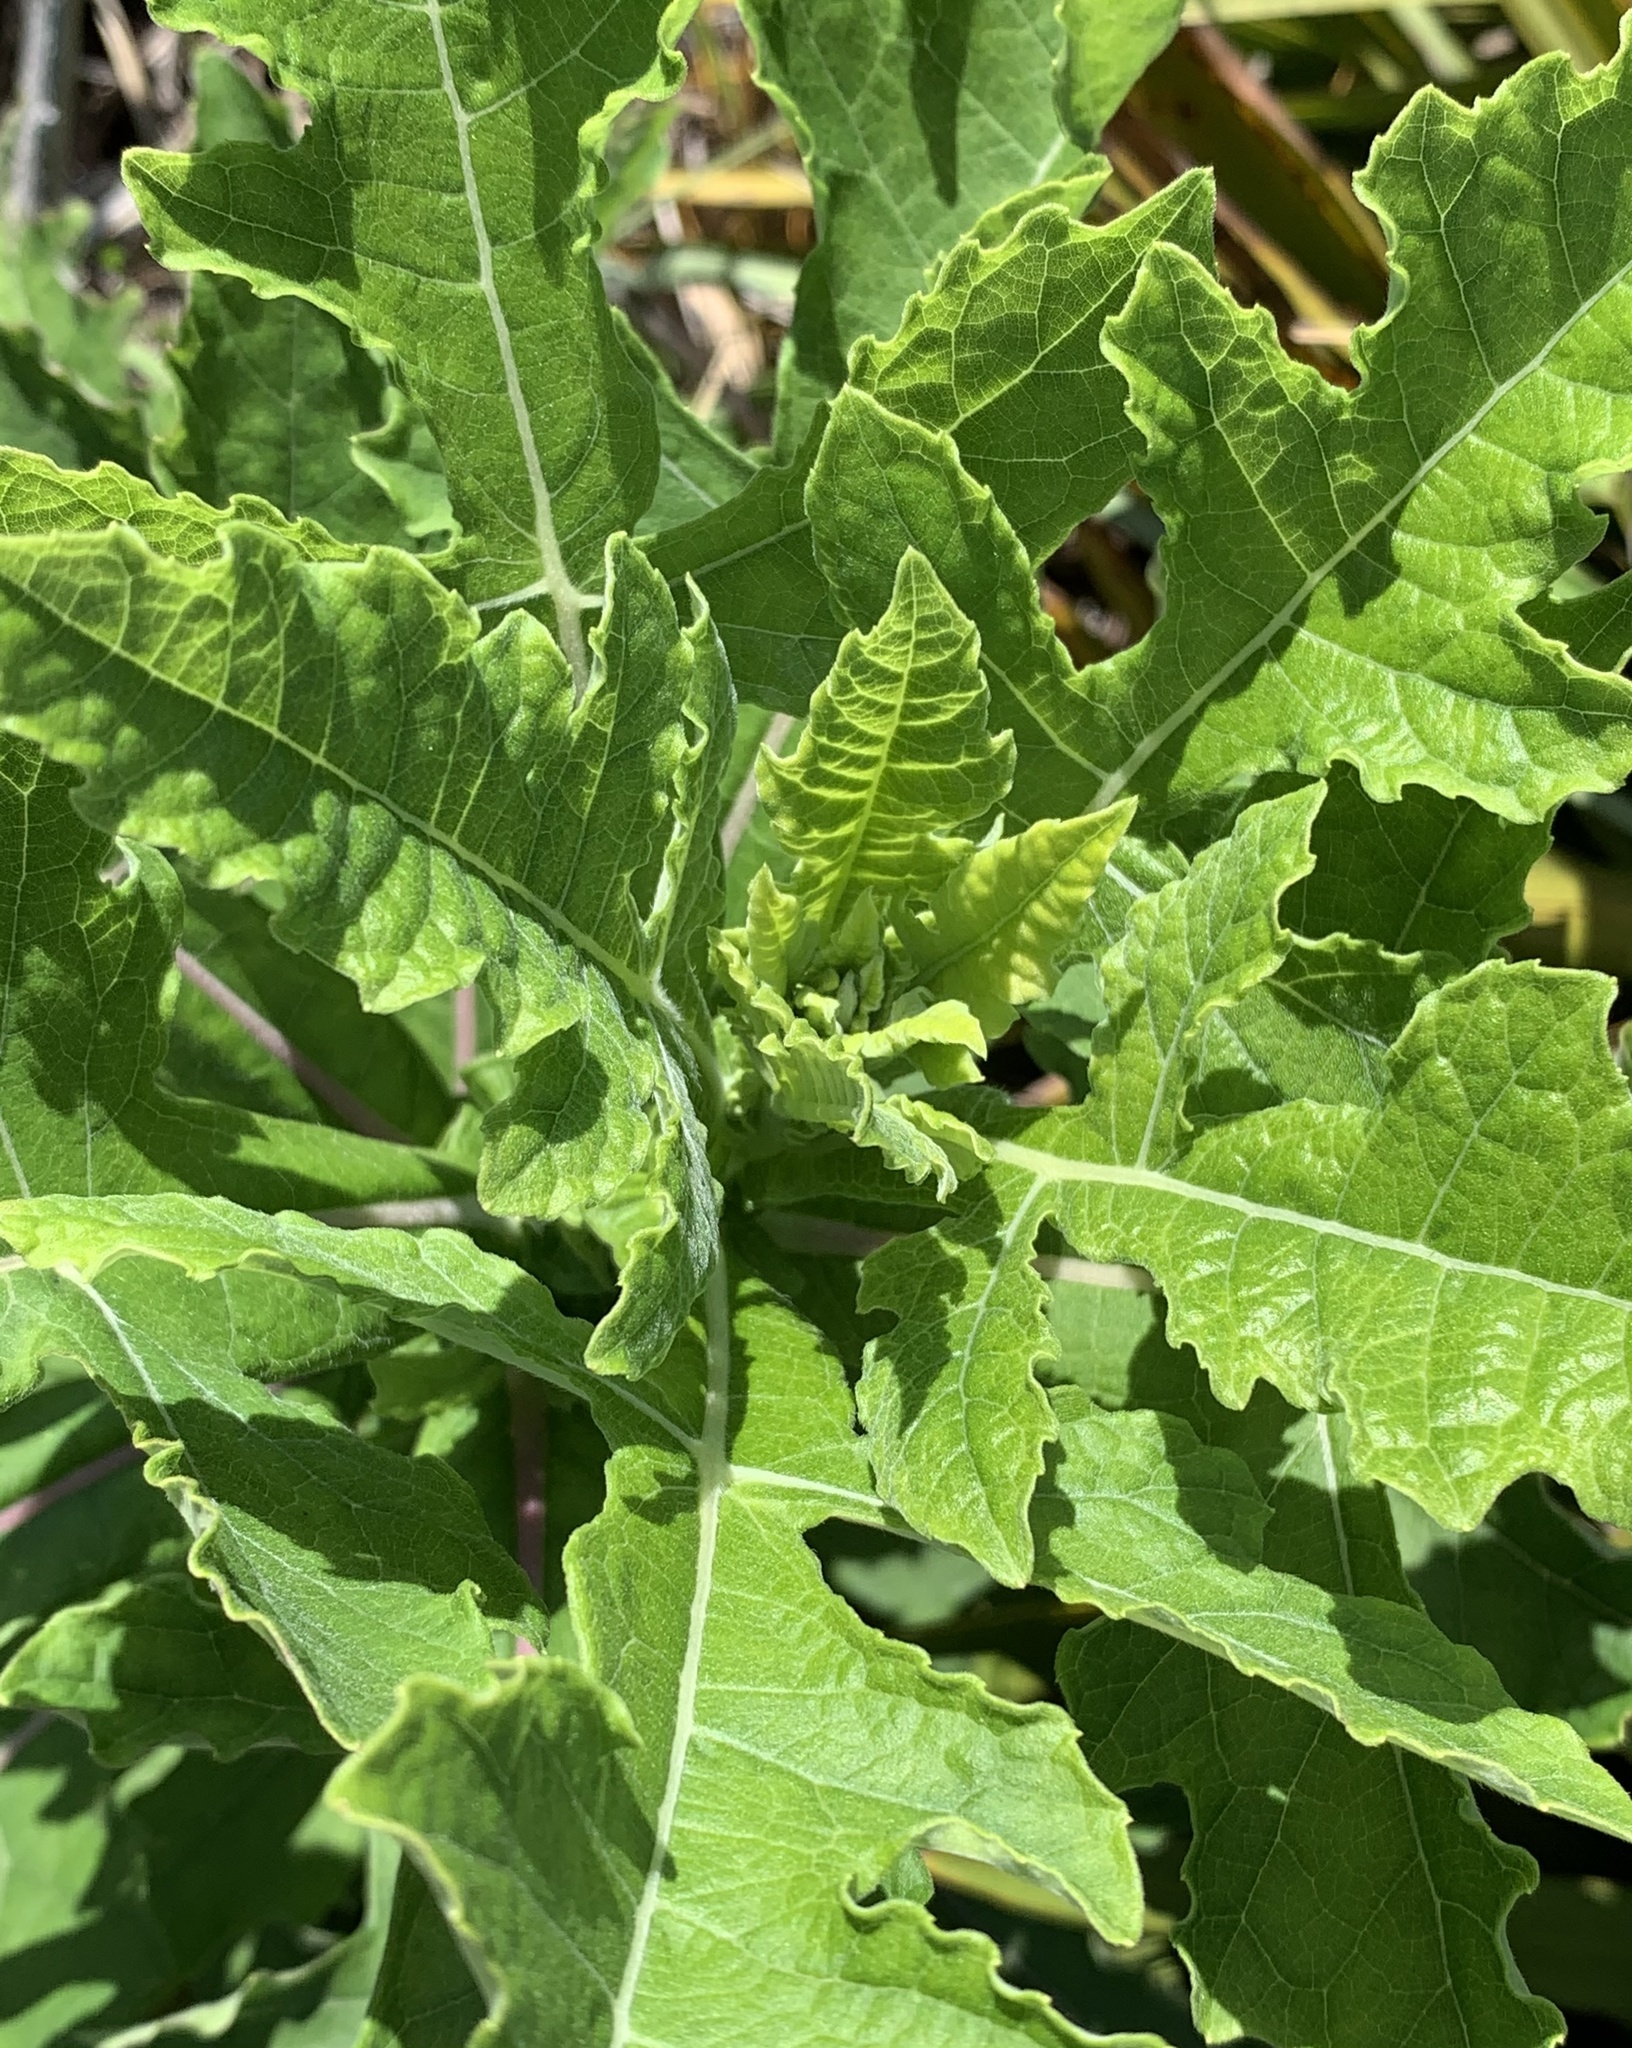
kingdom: Plantae
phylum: Tracheophyta
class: Magnoliopsida
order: Asterales
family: Asteraceae
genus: Verbesina
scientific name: Verbesina virginica
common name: Frostweed
